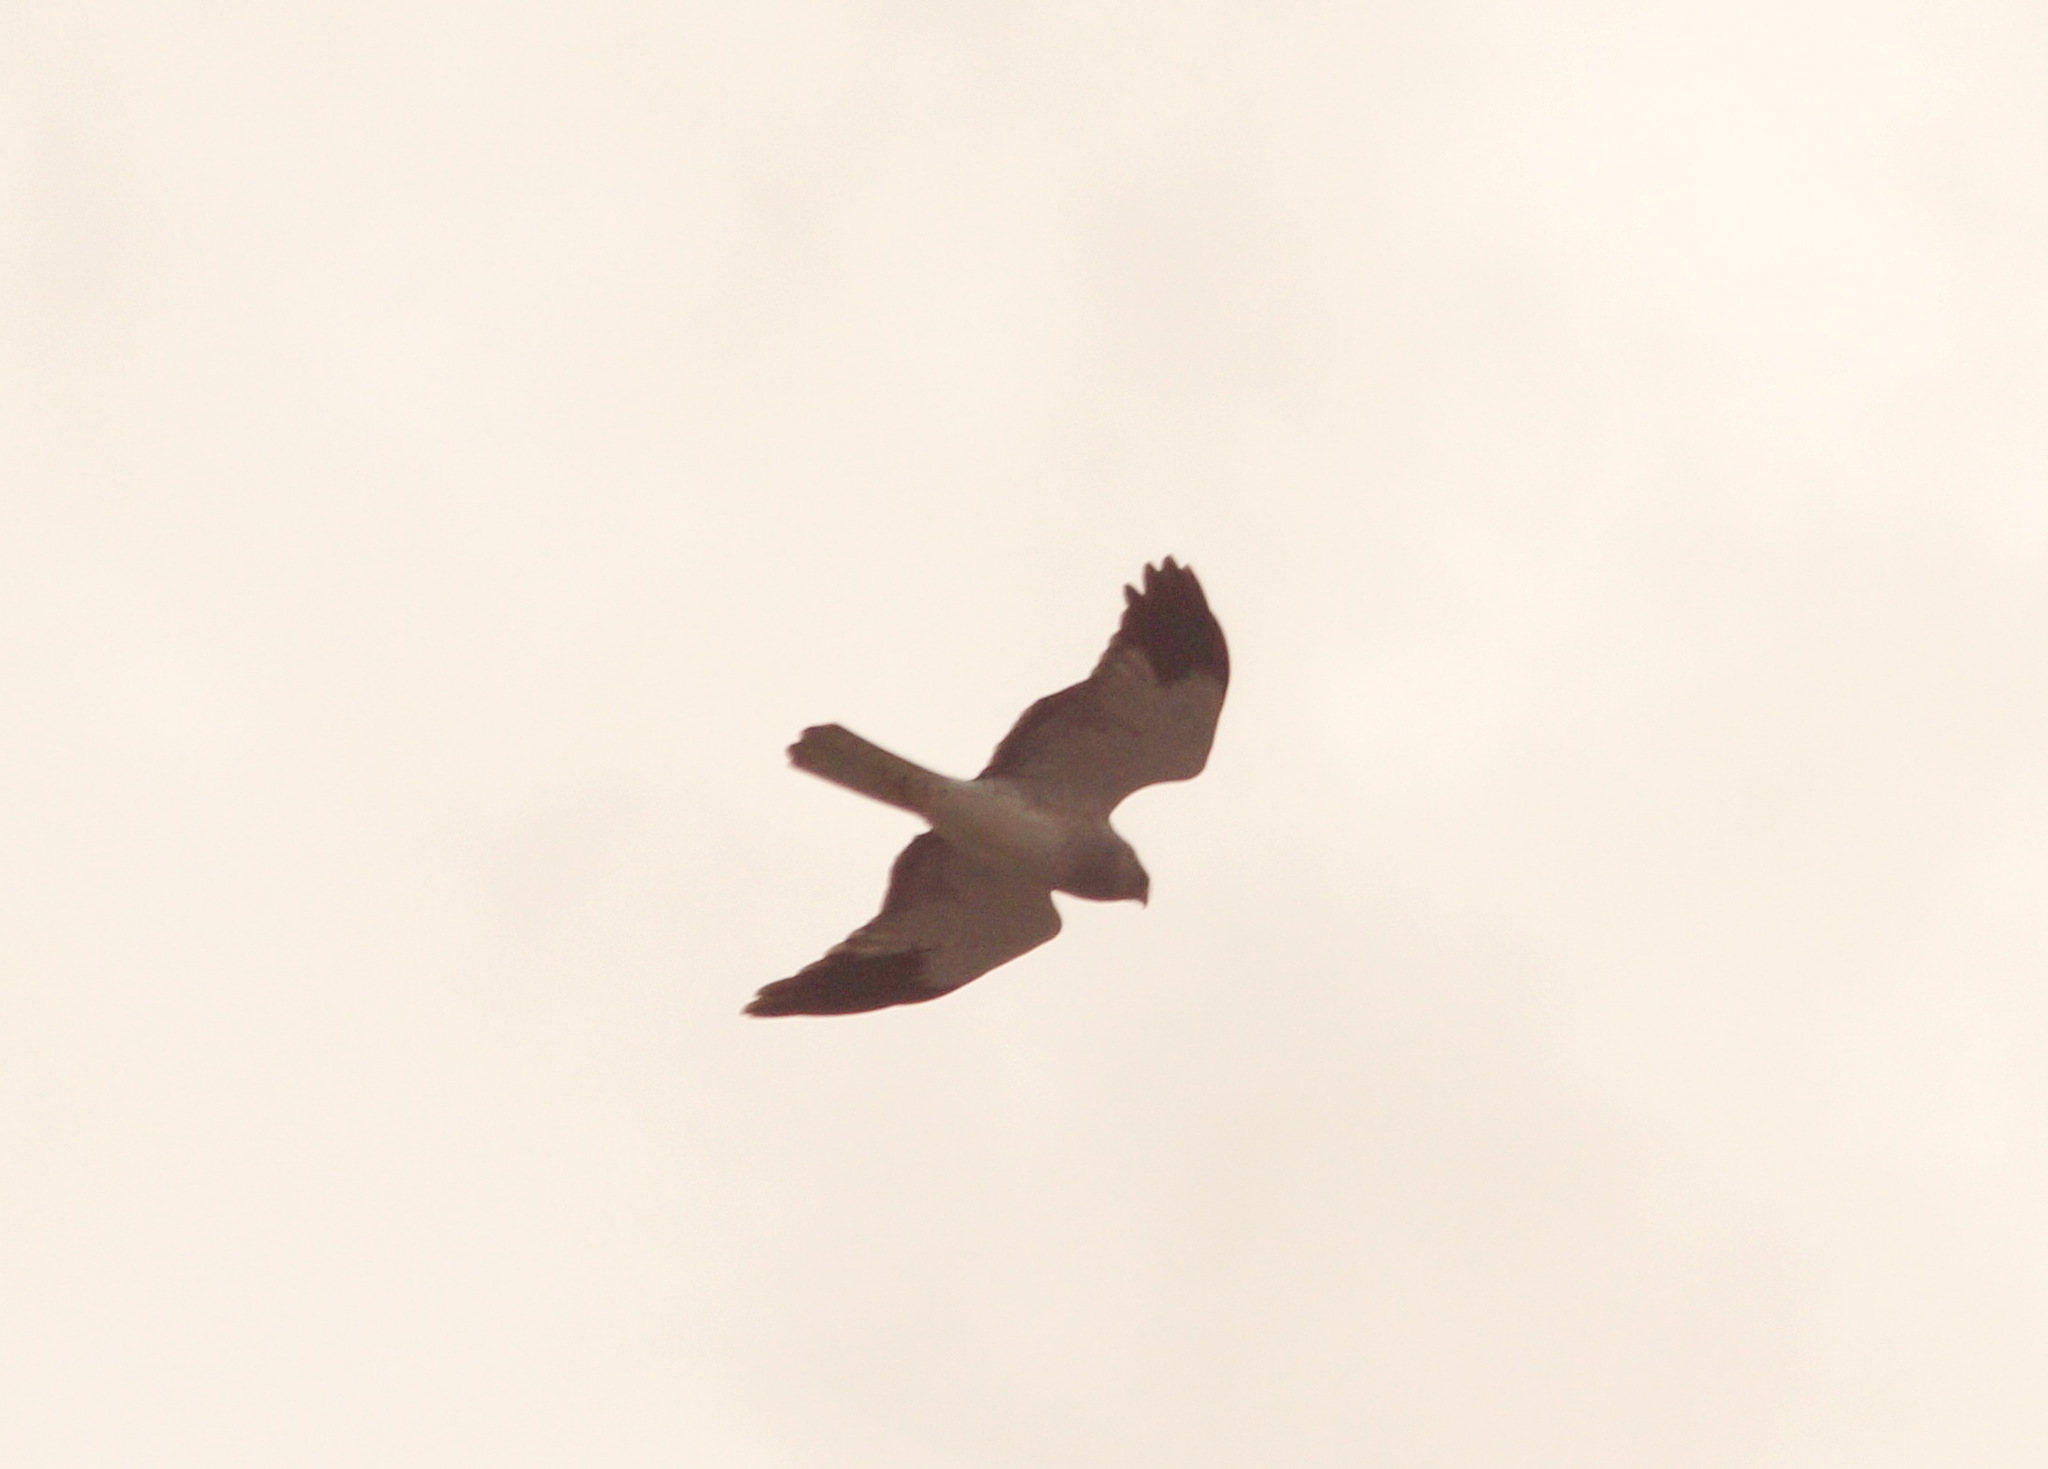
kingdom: Animalia
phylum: Chordata
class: Aves
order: Accipitriformes
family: Accipitridae
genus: Circus
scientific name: Circus cyaneus
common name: Hen harrier
